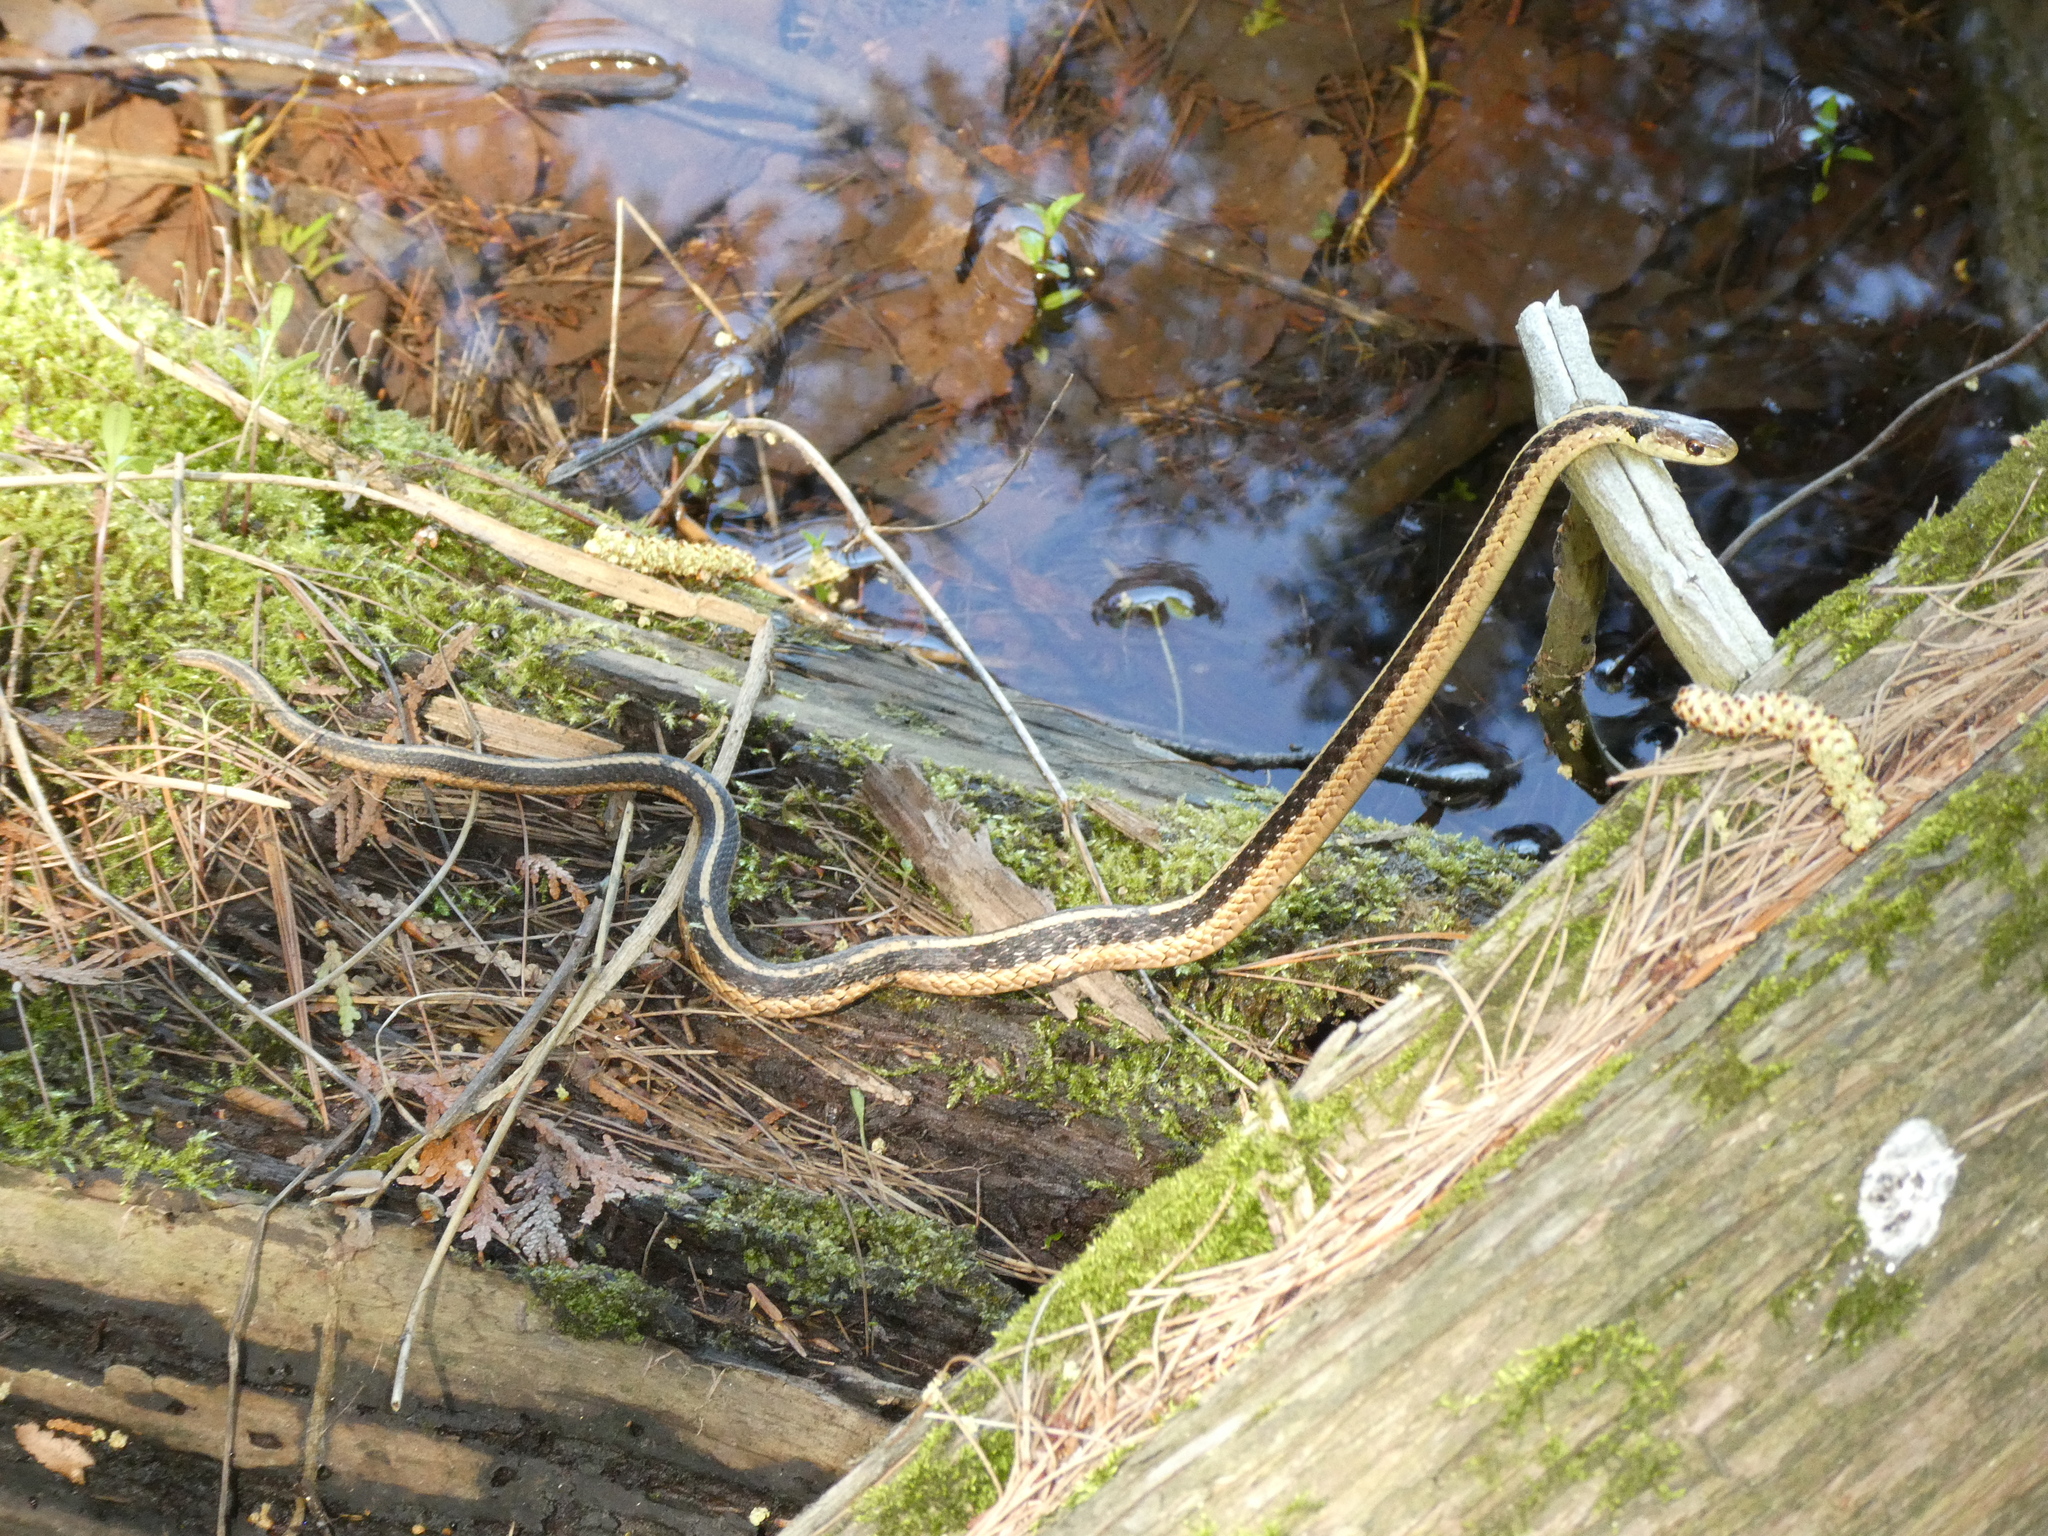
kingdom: Animalia
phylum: Chordata
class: Squamata
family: Colubridae
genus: Thamnophis
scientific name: Thamnophis sirtalis
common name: Common garter snake
